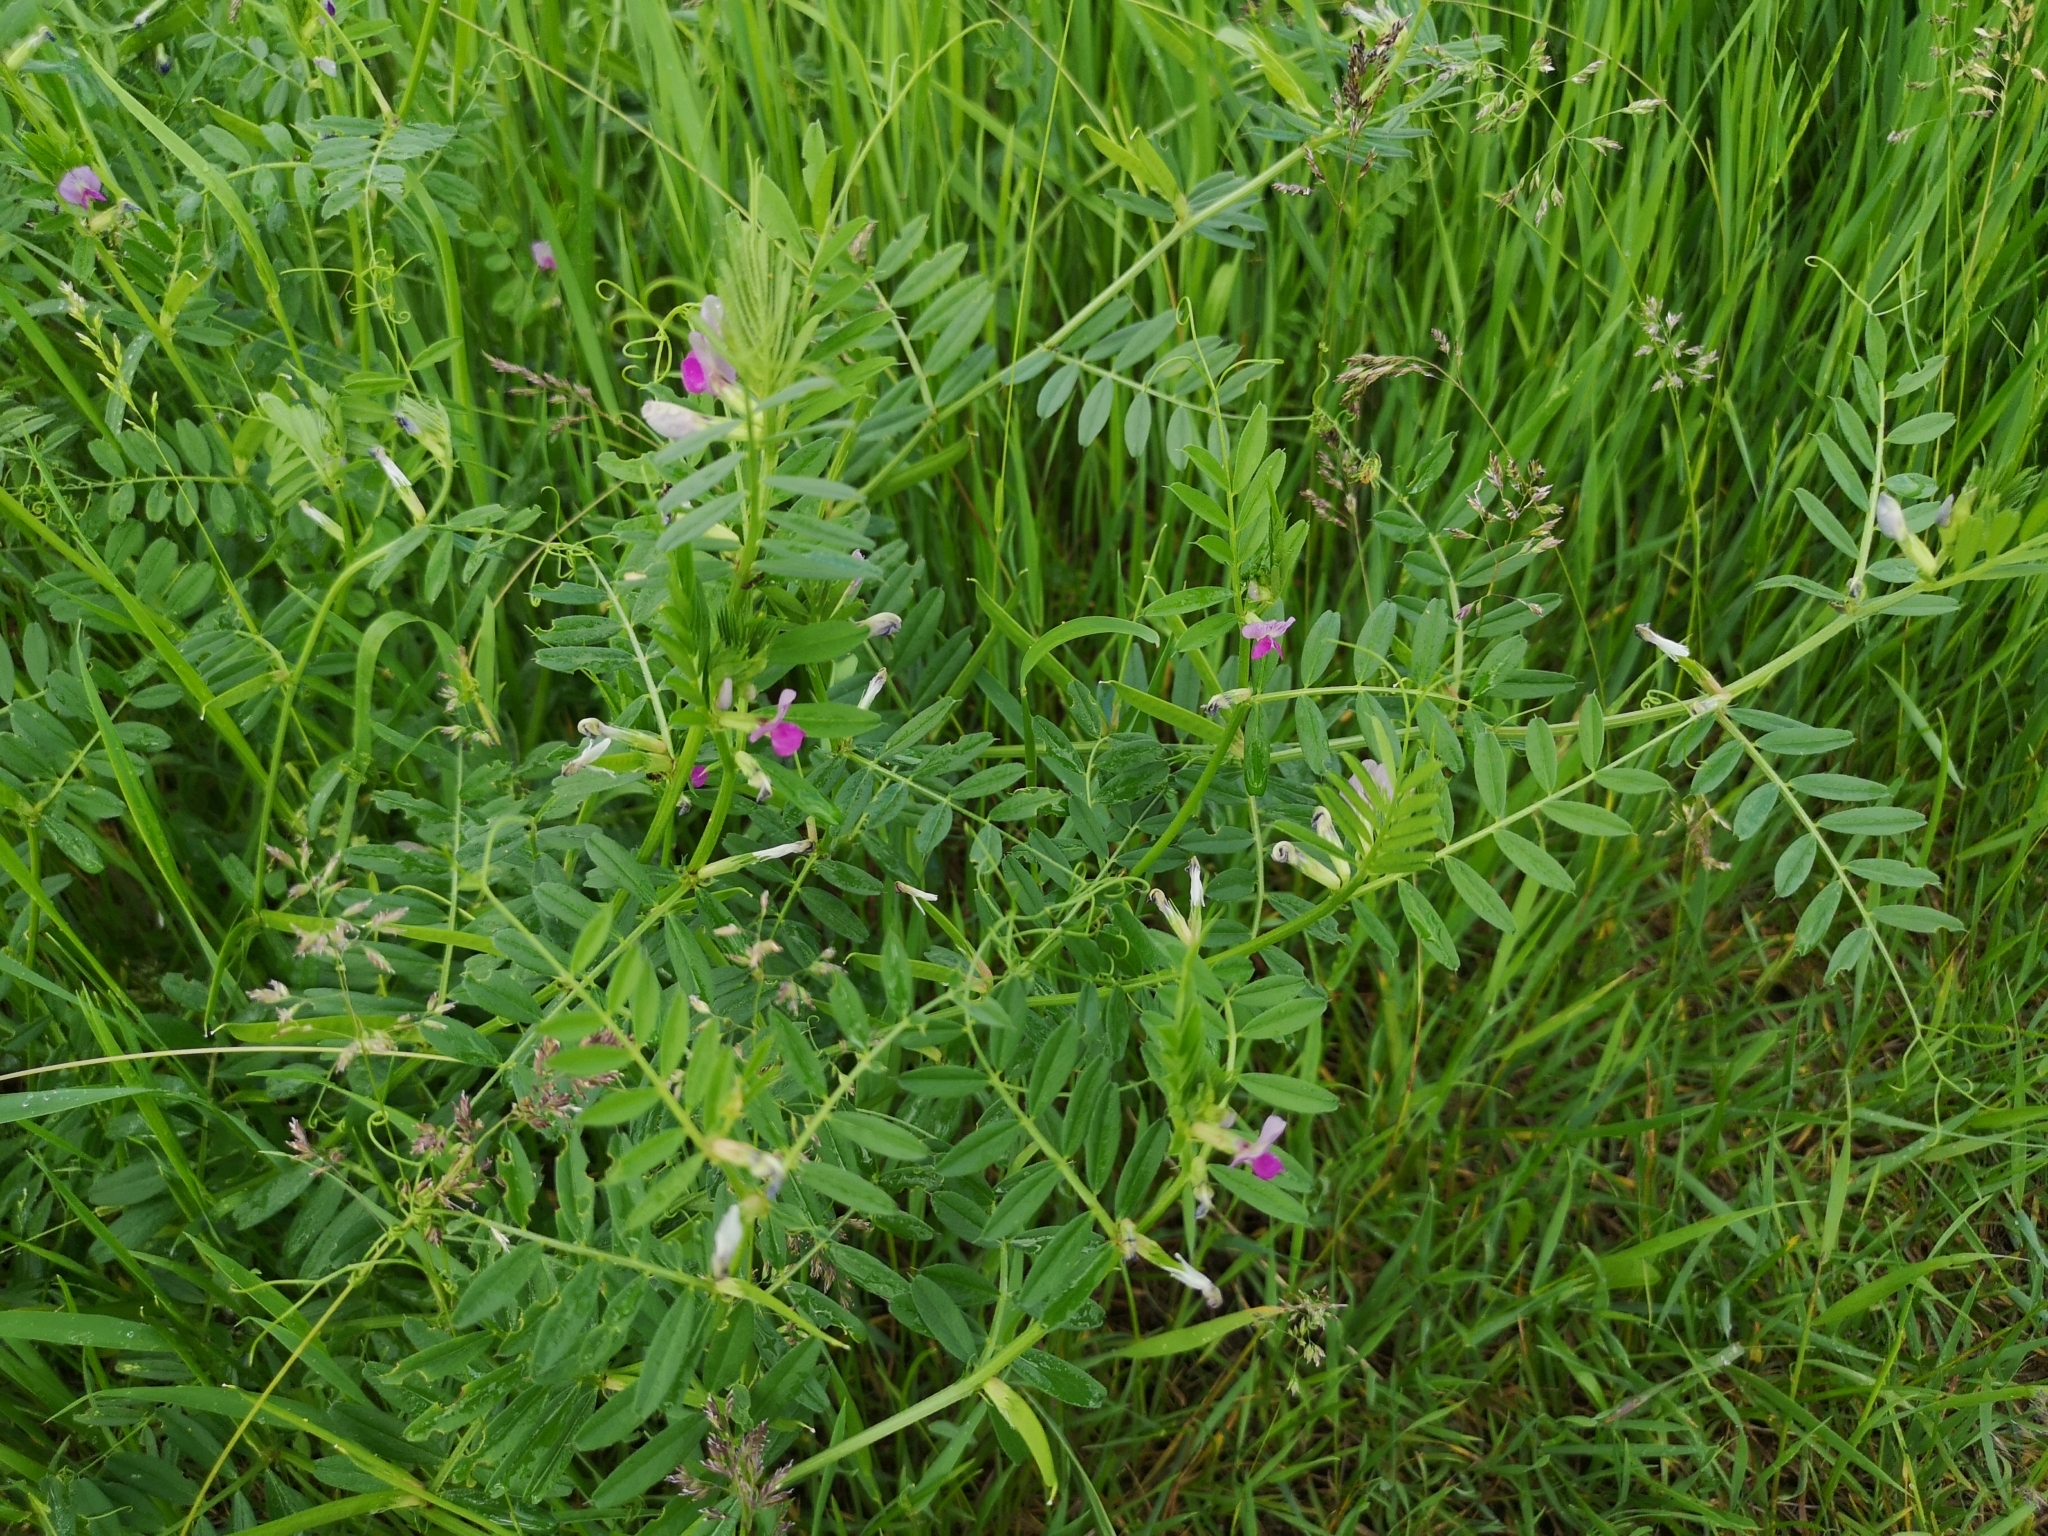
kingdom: Plantae
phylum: Tracheophyta
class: Magnoliopsida
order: Fabales
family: Fabaceae
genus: Vicia
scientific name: Vicia sativa
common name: Garden vetch
